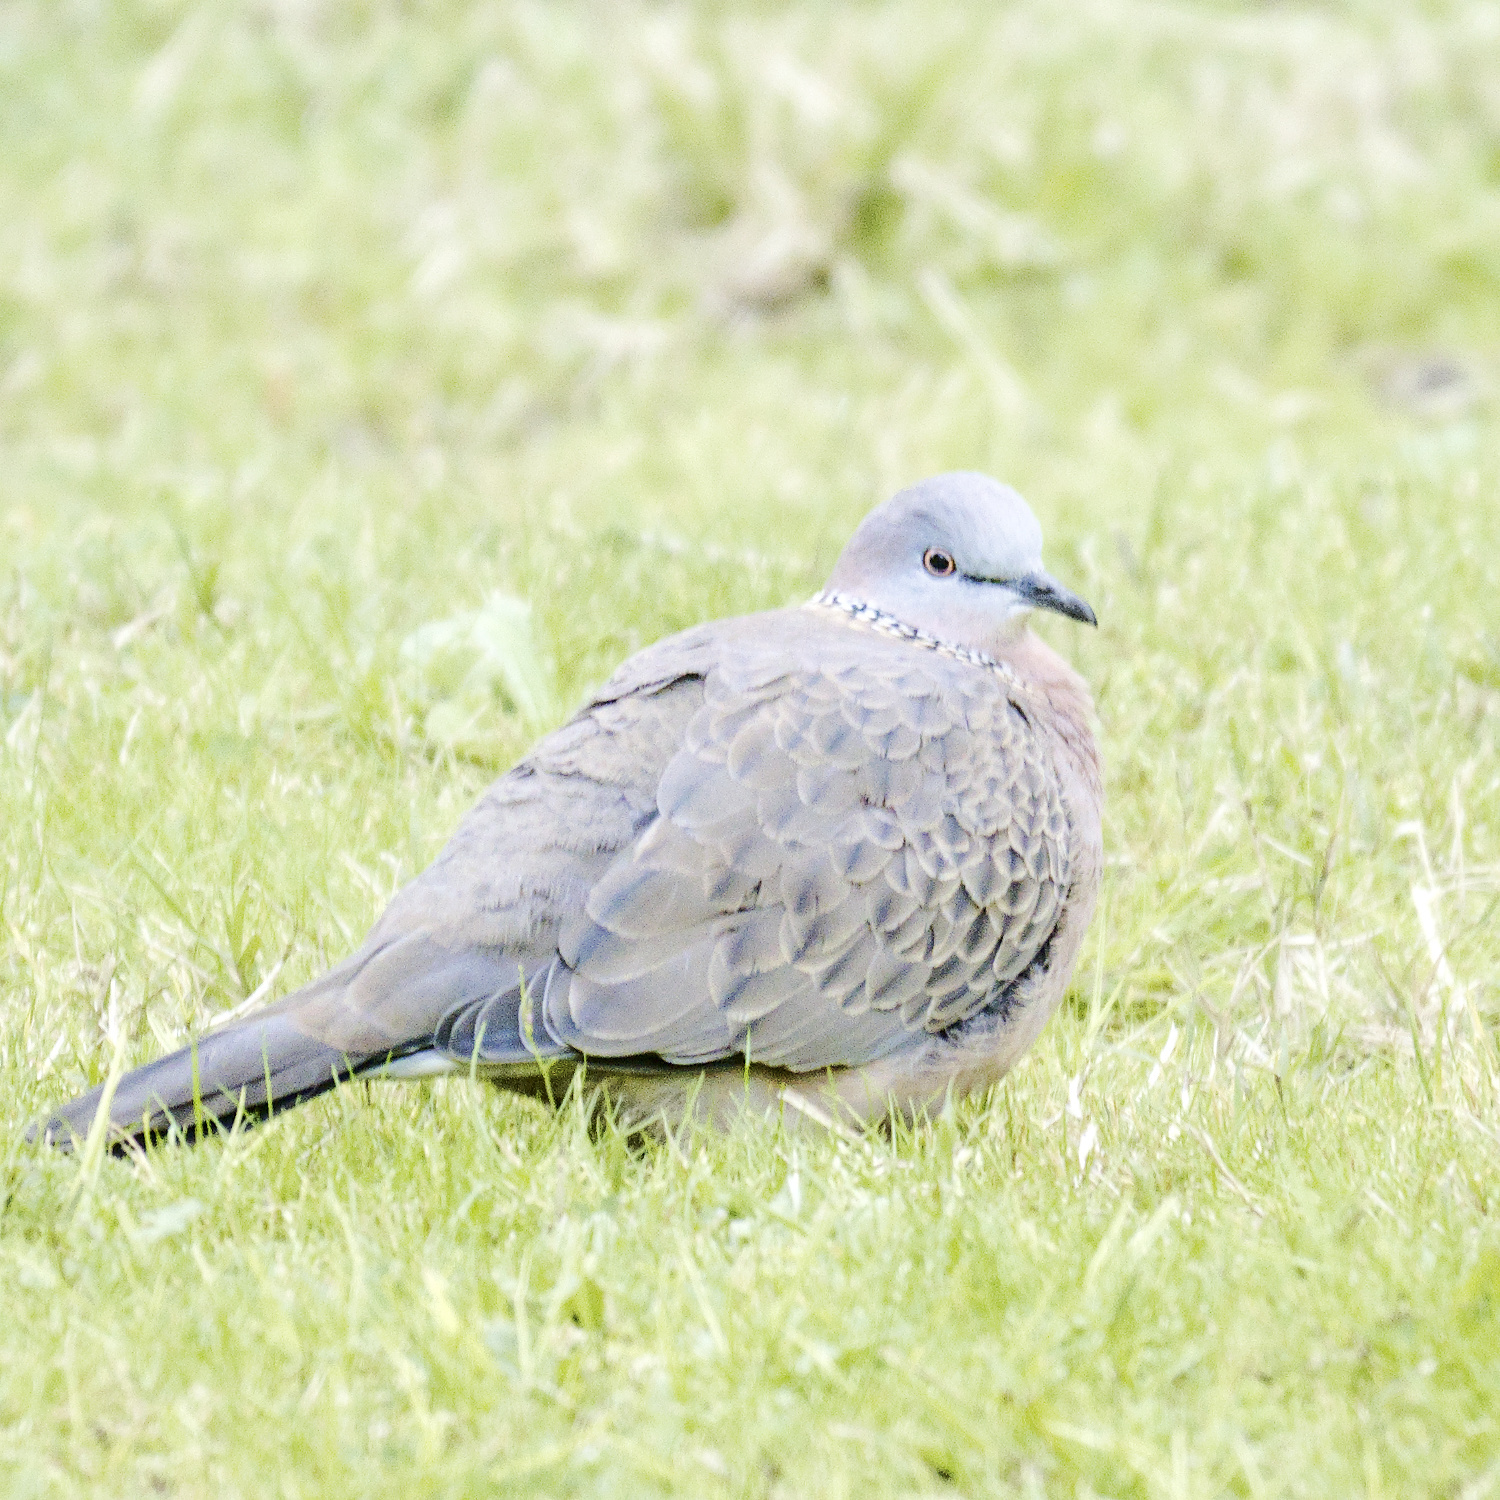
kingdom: Animalia
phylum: Chordata
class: Aves
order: Columbiformes
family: Columbidae
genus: Spilopelia
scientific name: Spilopelia chinensis
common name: Spotted dove
